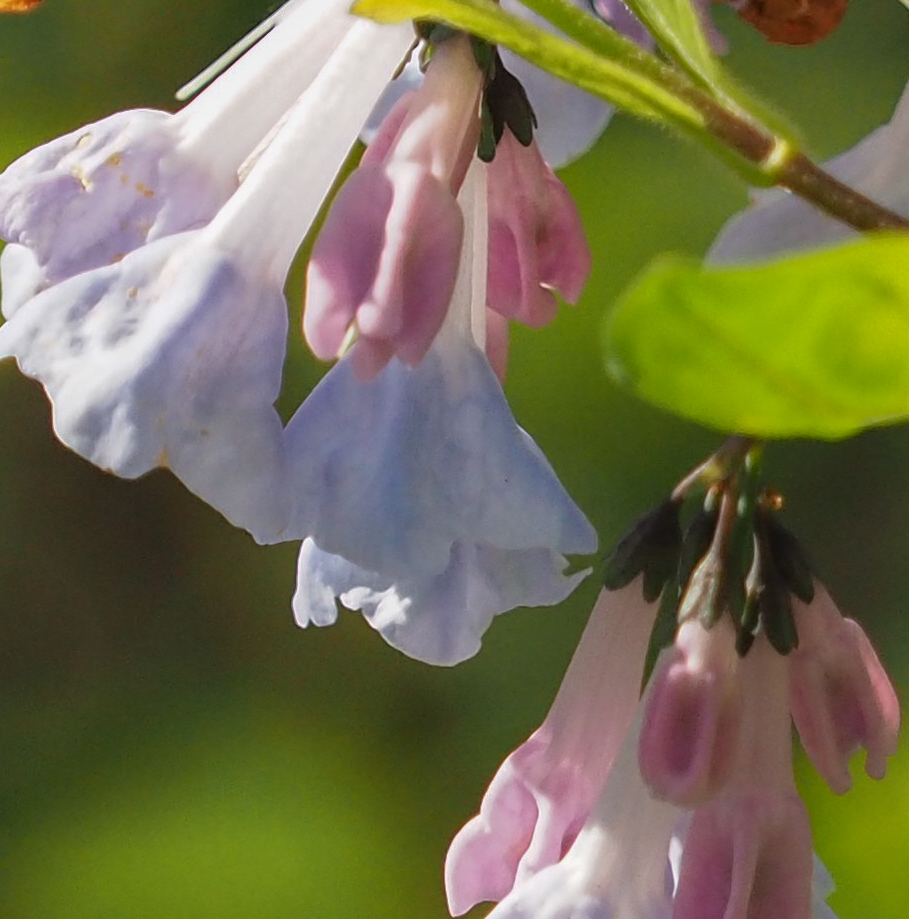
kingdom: Plantae
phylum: Tracheophyta
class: Magnoliopsida
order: Boraginales
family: Boraginaceae
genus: Mertensia
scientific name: Mertensia virginica
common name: Virginia bluebells
